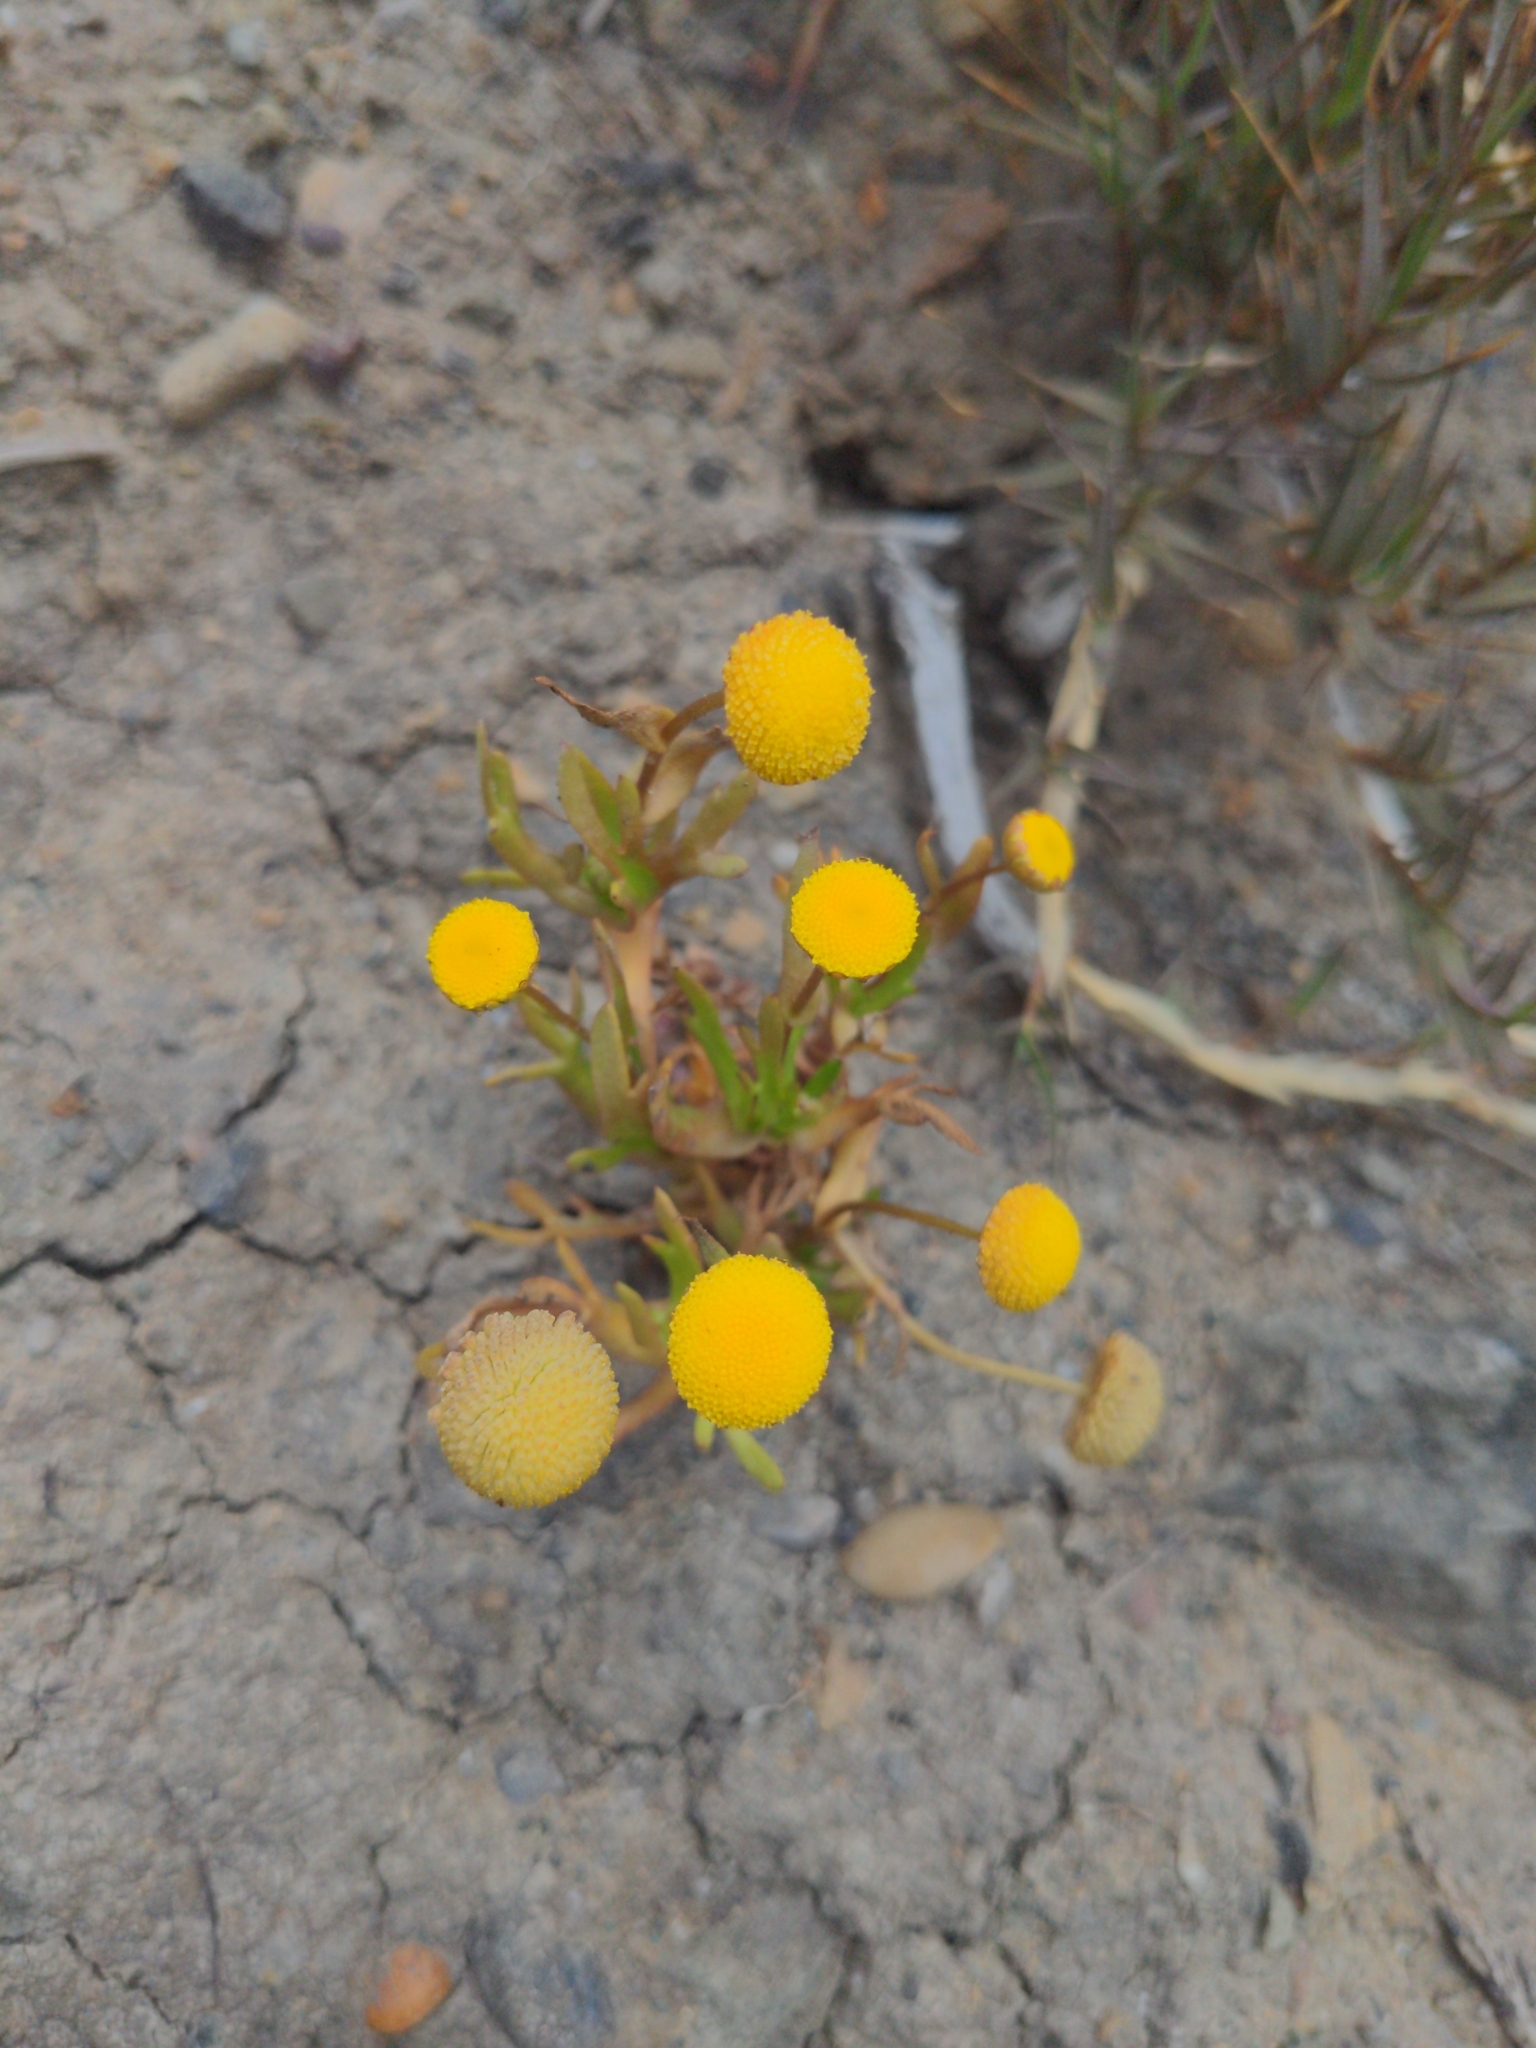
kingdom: Plantae
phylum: Tracheophyta
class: Magnoliopsida
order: Asterales
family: Asteraceae
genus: Cotula
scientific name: Cotula coronopifolia
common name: Buttonweed
